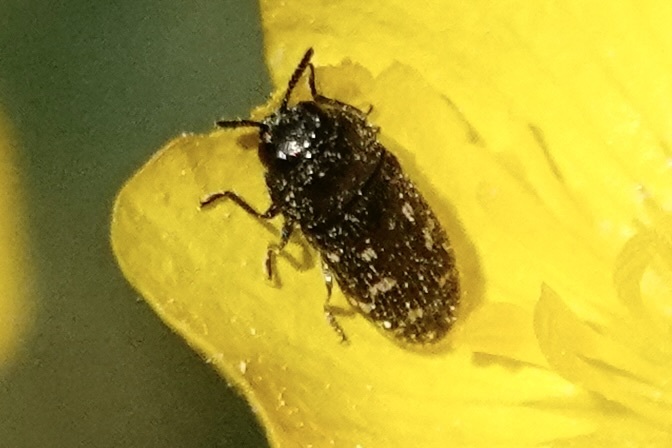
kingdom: Animalia
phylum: Arthropoda
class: Insecta
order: Coleoptera
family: Buprestidae
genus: Acmaeodera
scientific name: Acmaeodera tubulus
